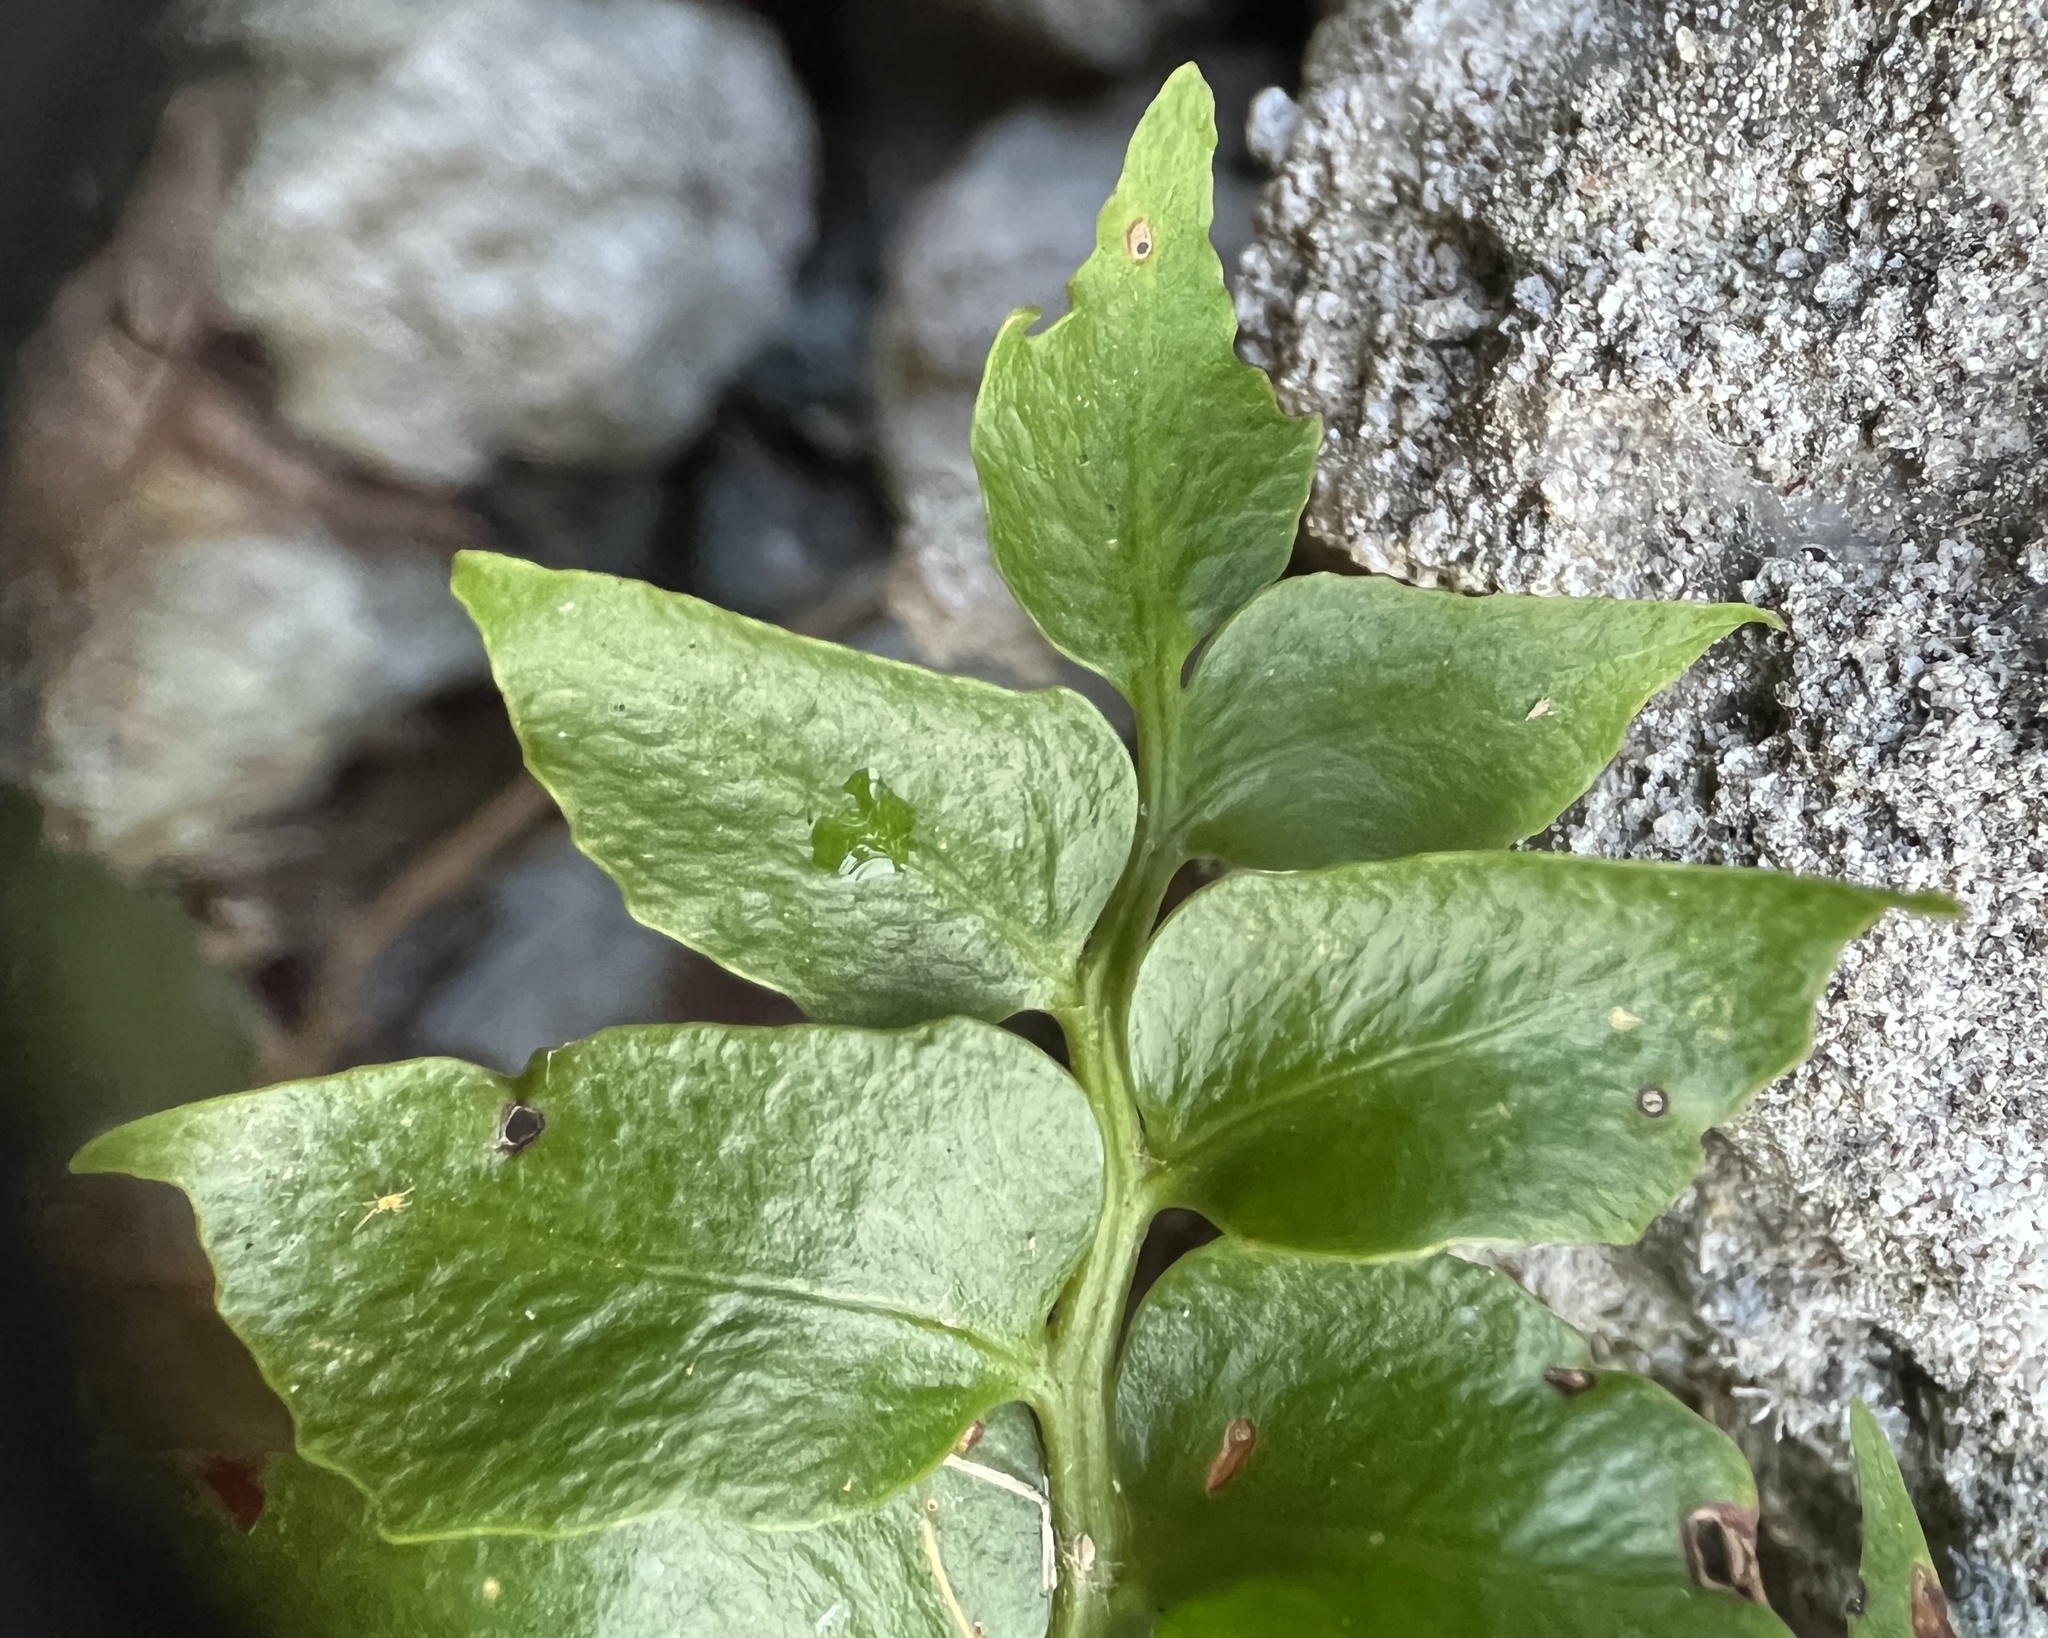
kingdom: Plantae
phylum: Tracheophyta
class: Polypodiopsida
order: Polypodiales
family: Dryopteridaceae
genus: Cyrtomium
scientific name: Cyrtomium falcatum
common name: House holly-fern
